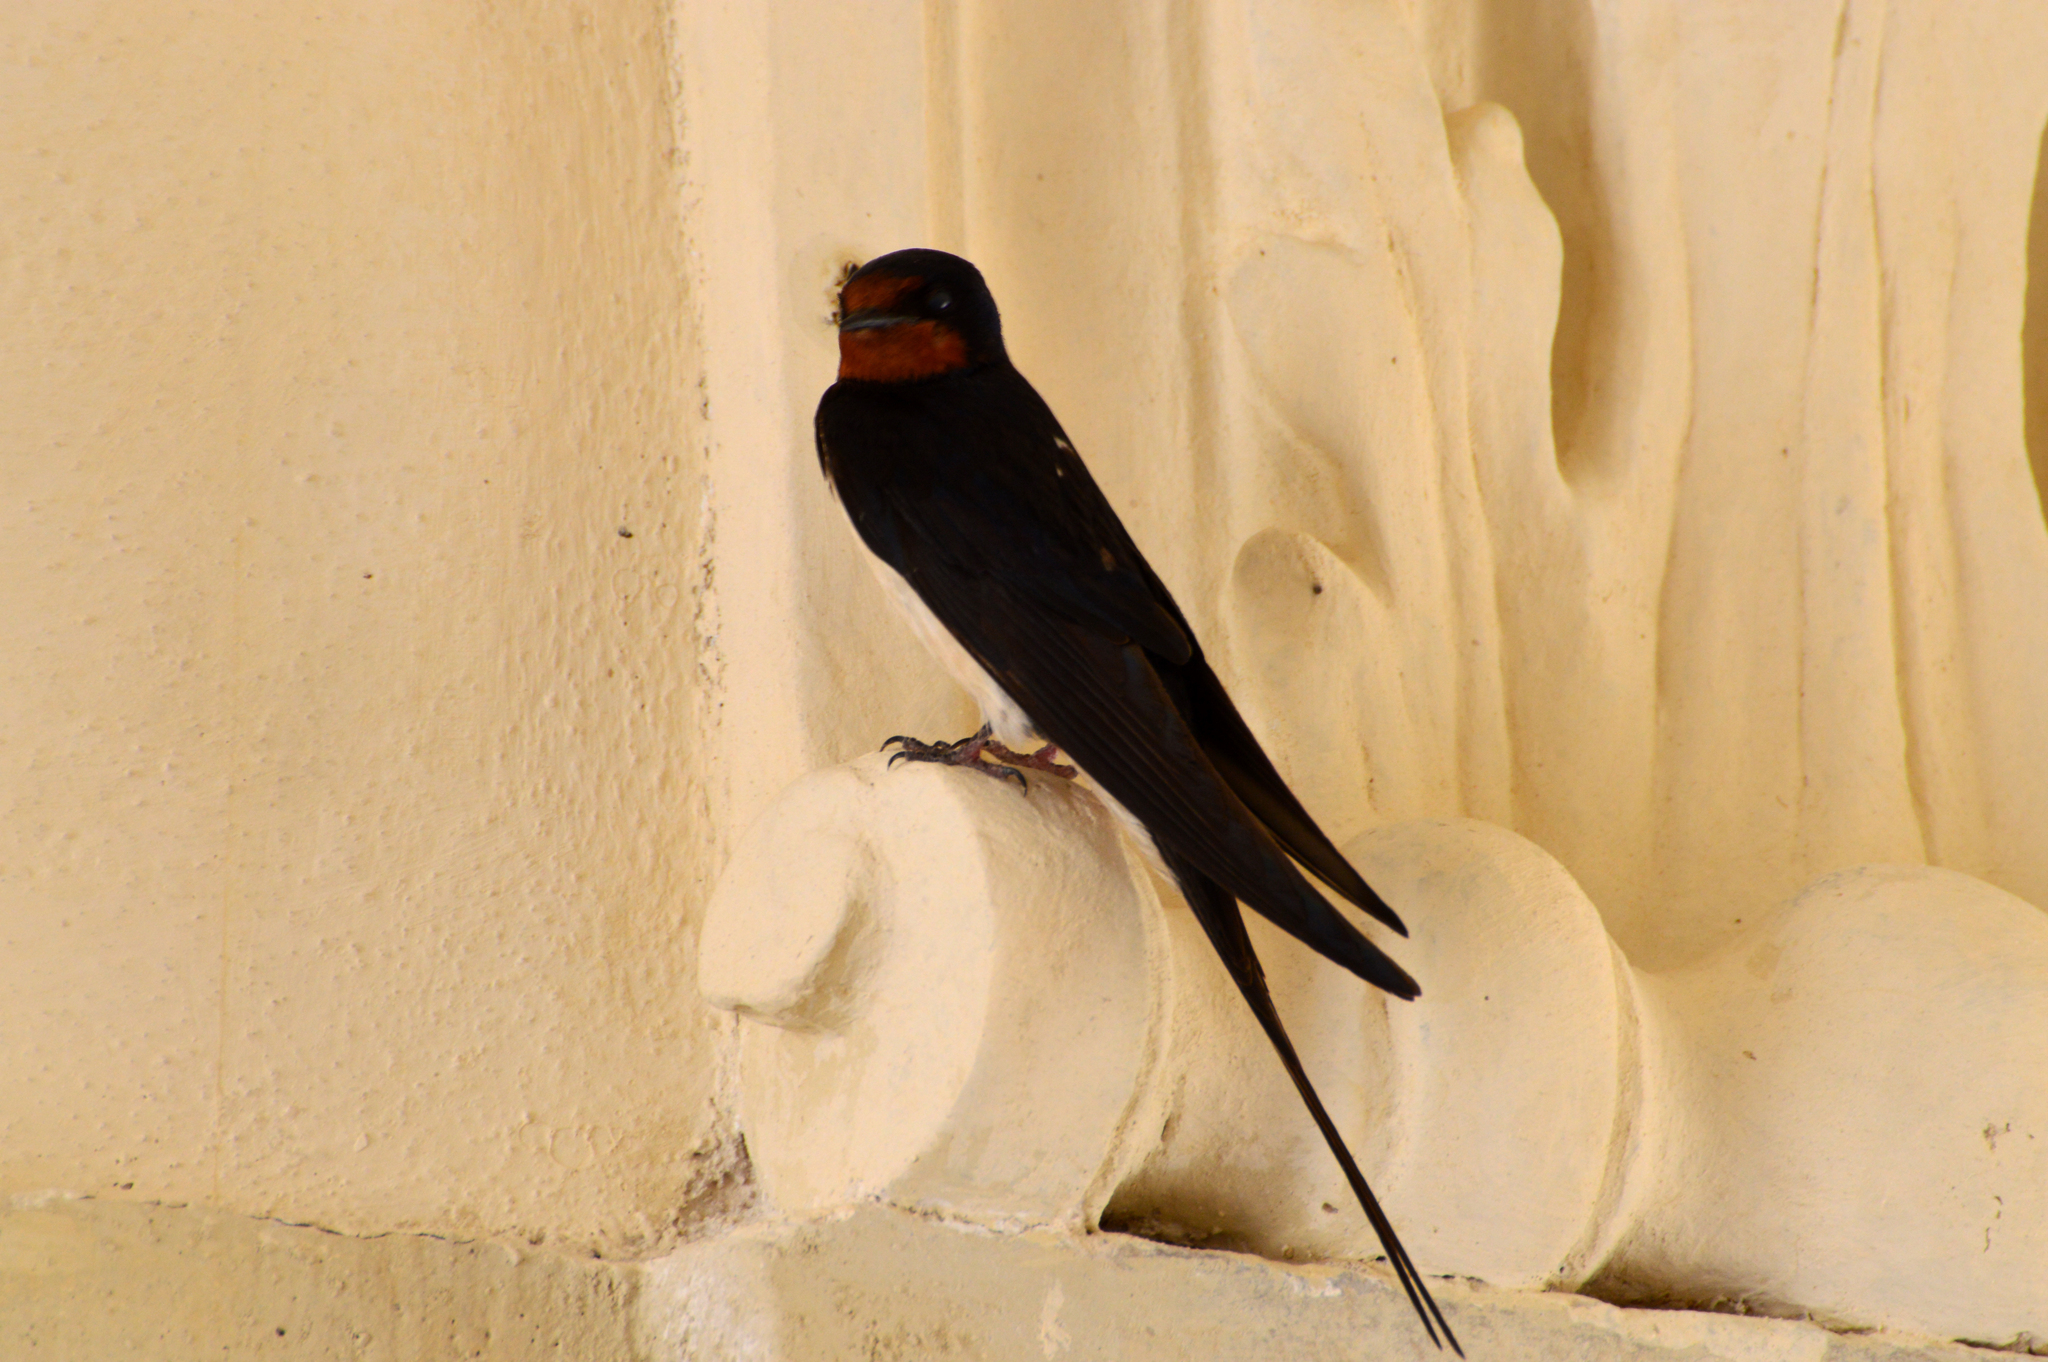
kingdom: Animalia
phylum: Chordata
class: Aves
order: Passeriformes
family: Hirundinidae
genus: Hirundo
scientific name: Hirundo rustica
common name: Barn swallow
